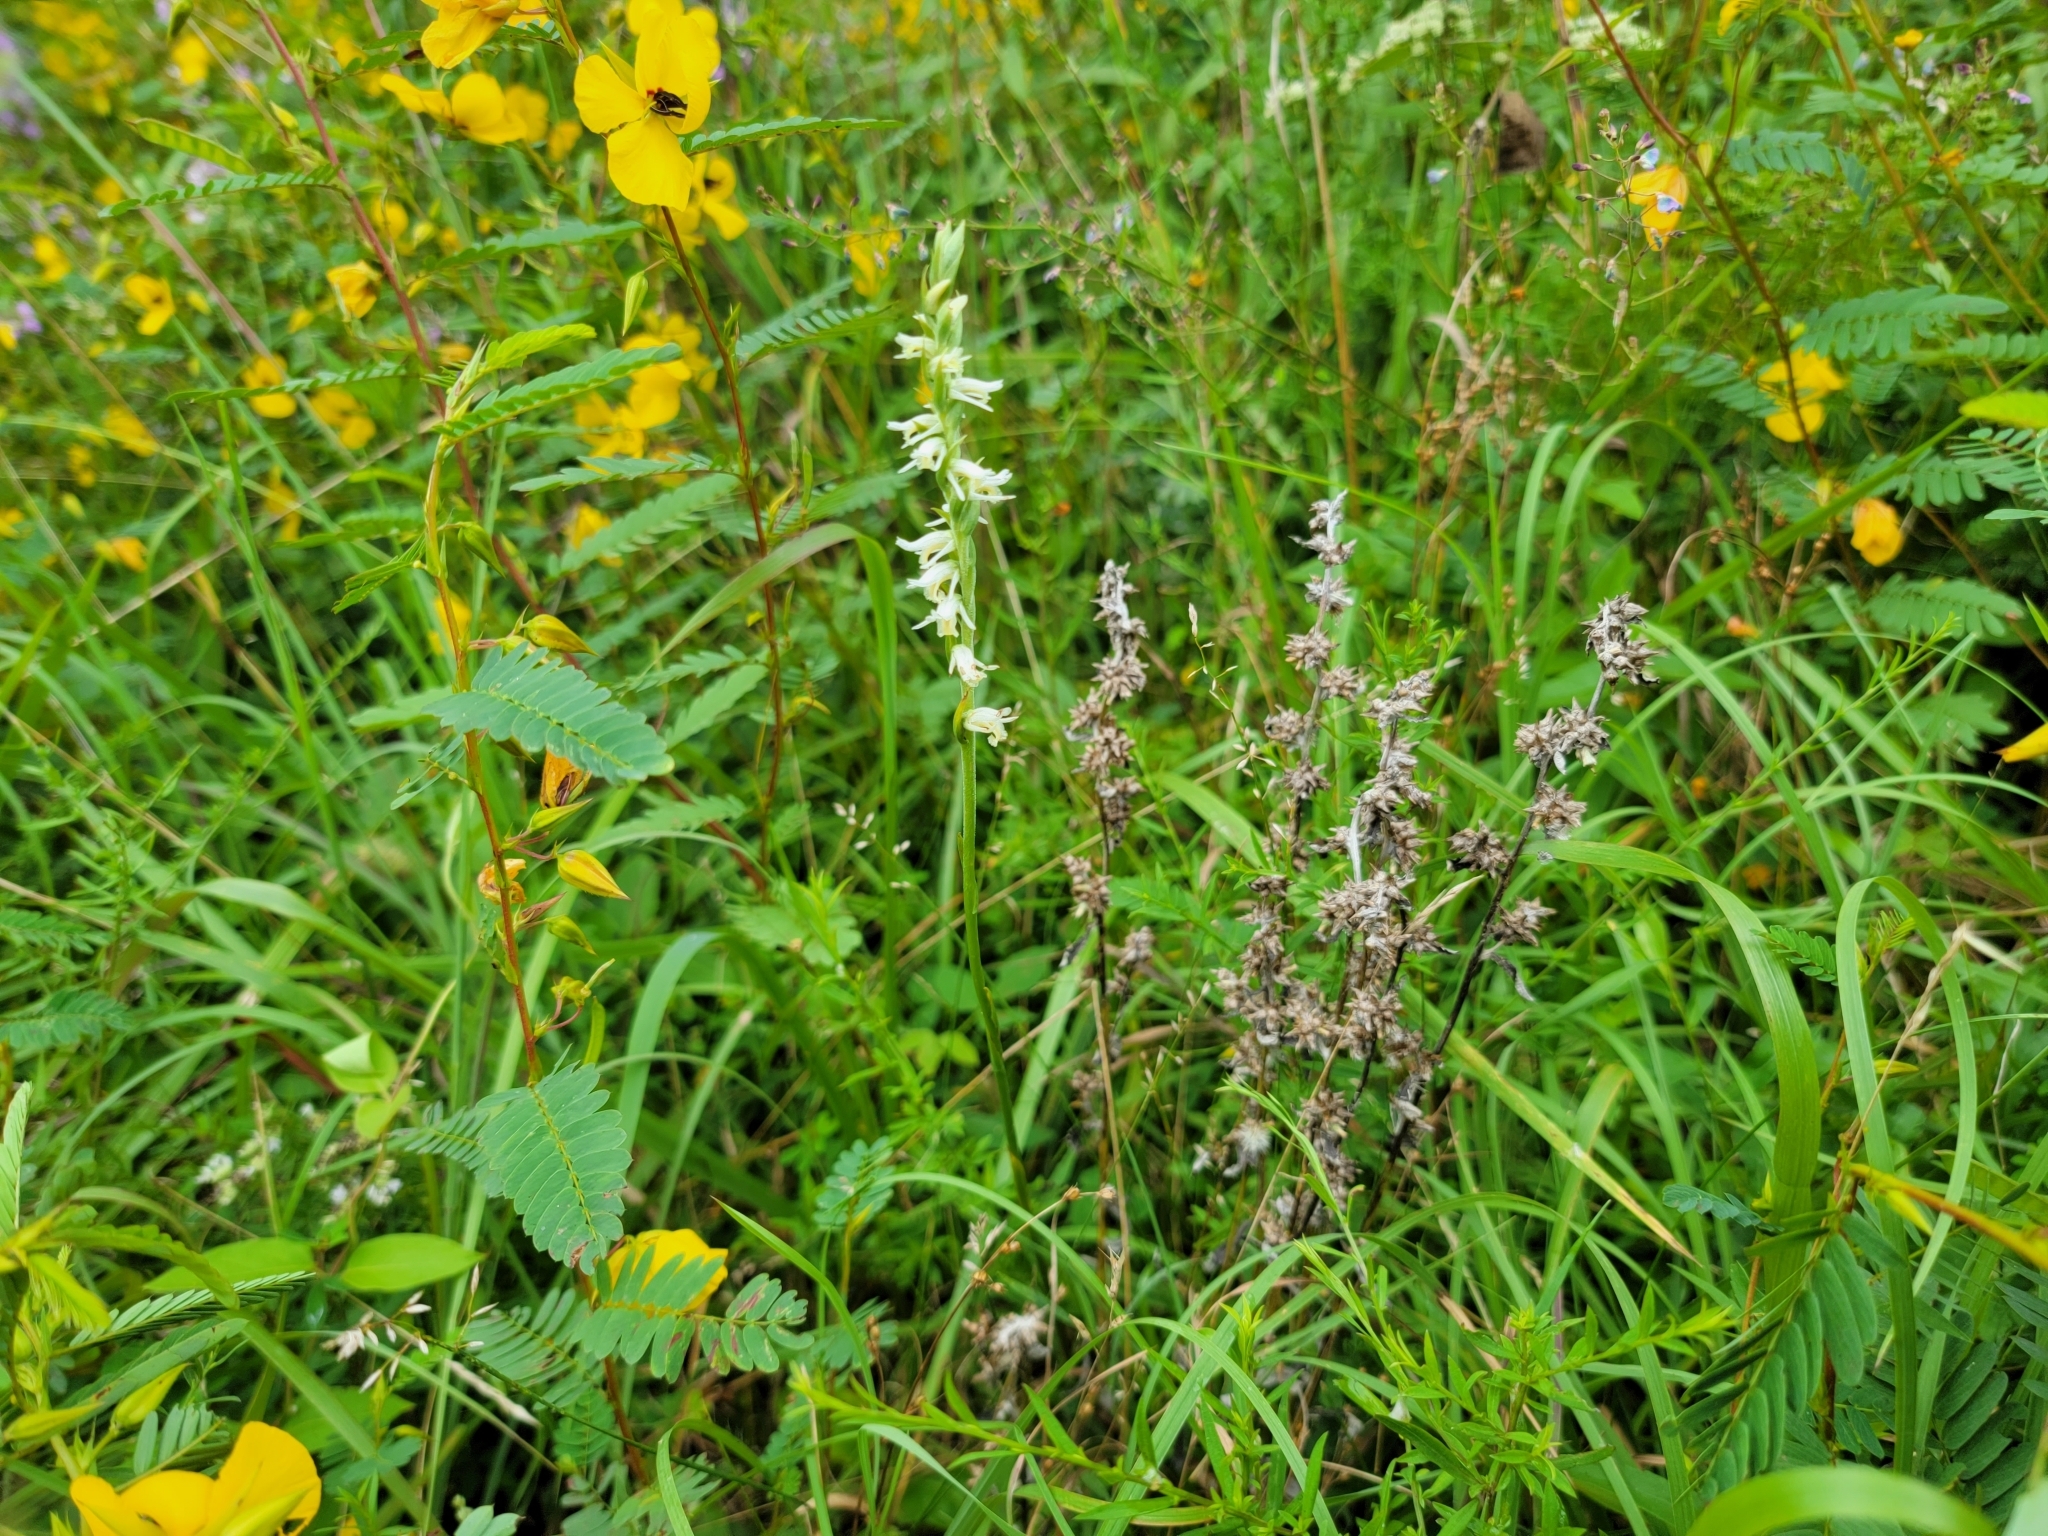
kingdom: Plantae
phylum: Tracheophyta
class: Liliopsida
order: Asparagales
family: Orchidaceae
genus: Spiranthes
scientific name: Spiranthes vernalis
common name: Spring ladies'-tresses
